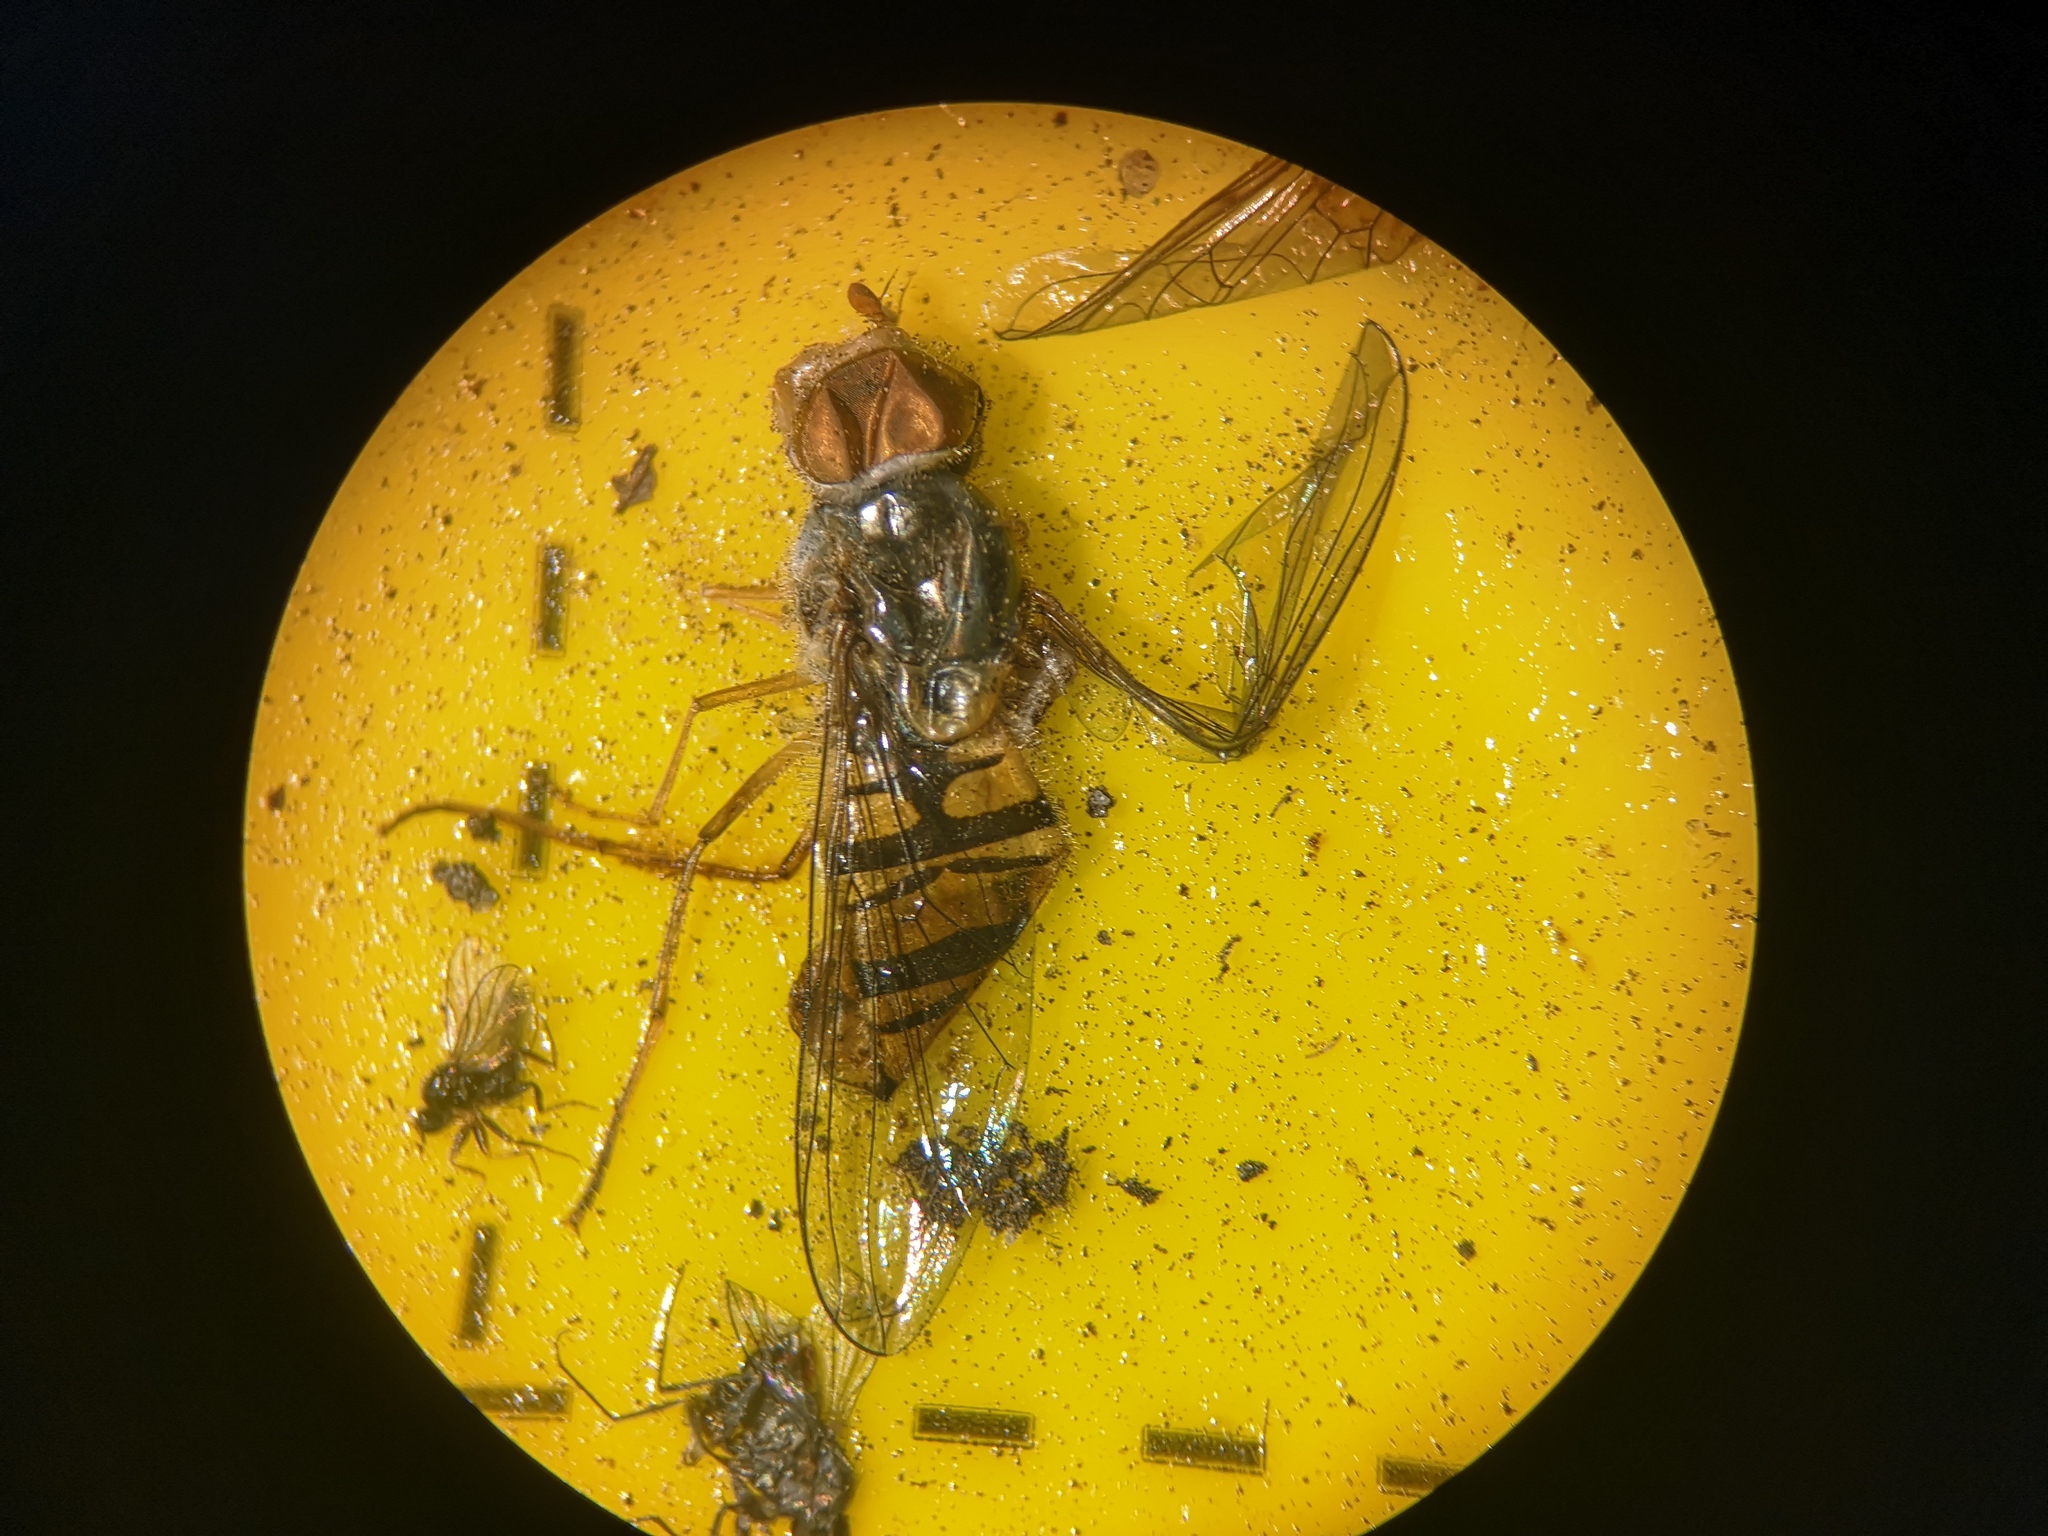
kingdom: Animalia
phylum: Arthropoda
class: Insecta
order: Diptera
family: Syrphidae
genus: Episyrphus
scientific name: Episyrphus balteatus
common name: Marmalade hoverfly
